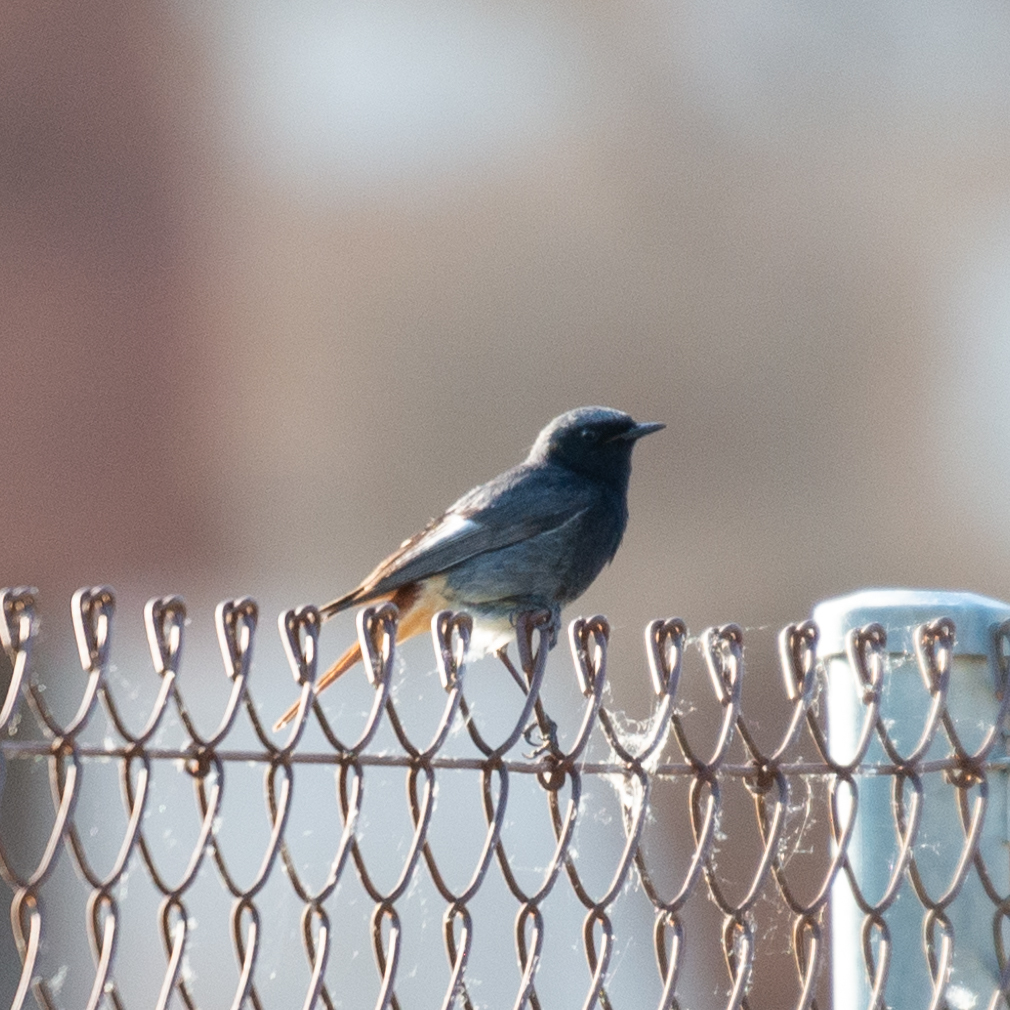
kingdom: Animalia
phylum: Chordata
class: Aves
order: Passeriformes
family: Muscicapidae
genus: Phoenicurus
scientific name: Phoenicurus ochruros
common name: Black redstart
